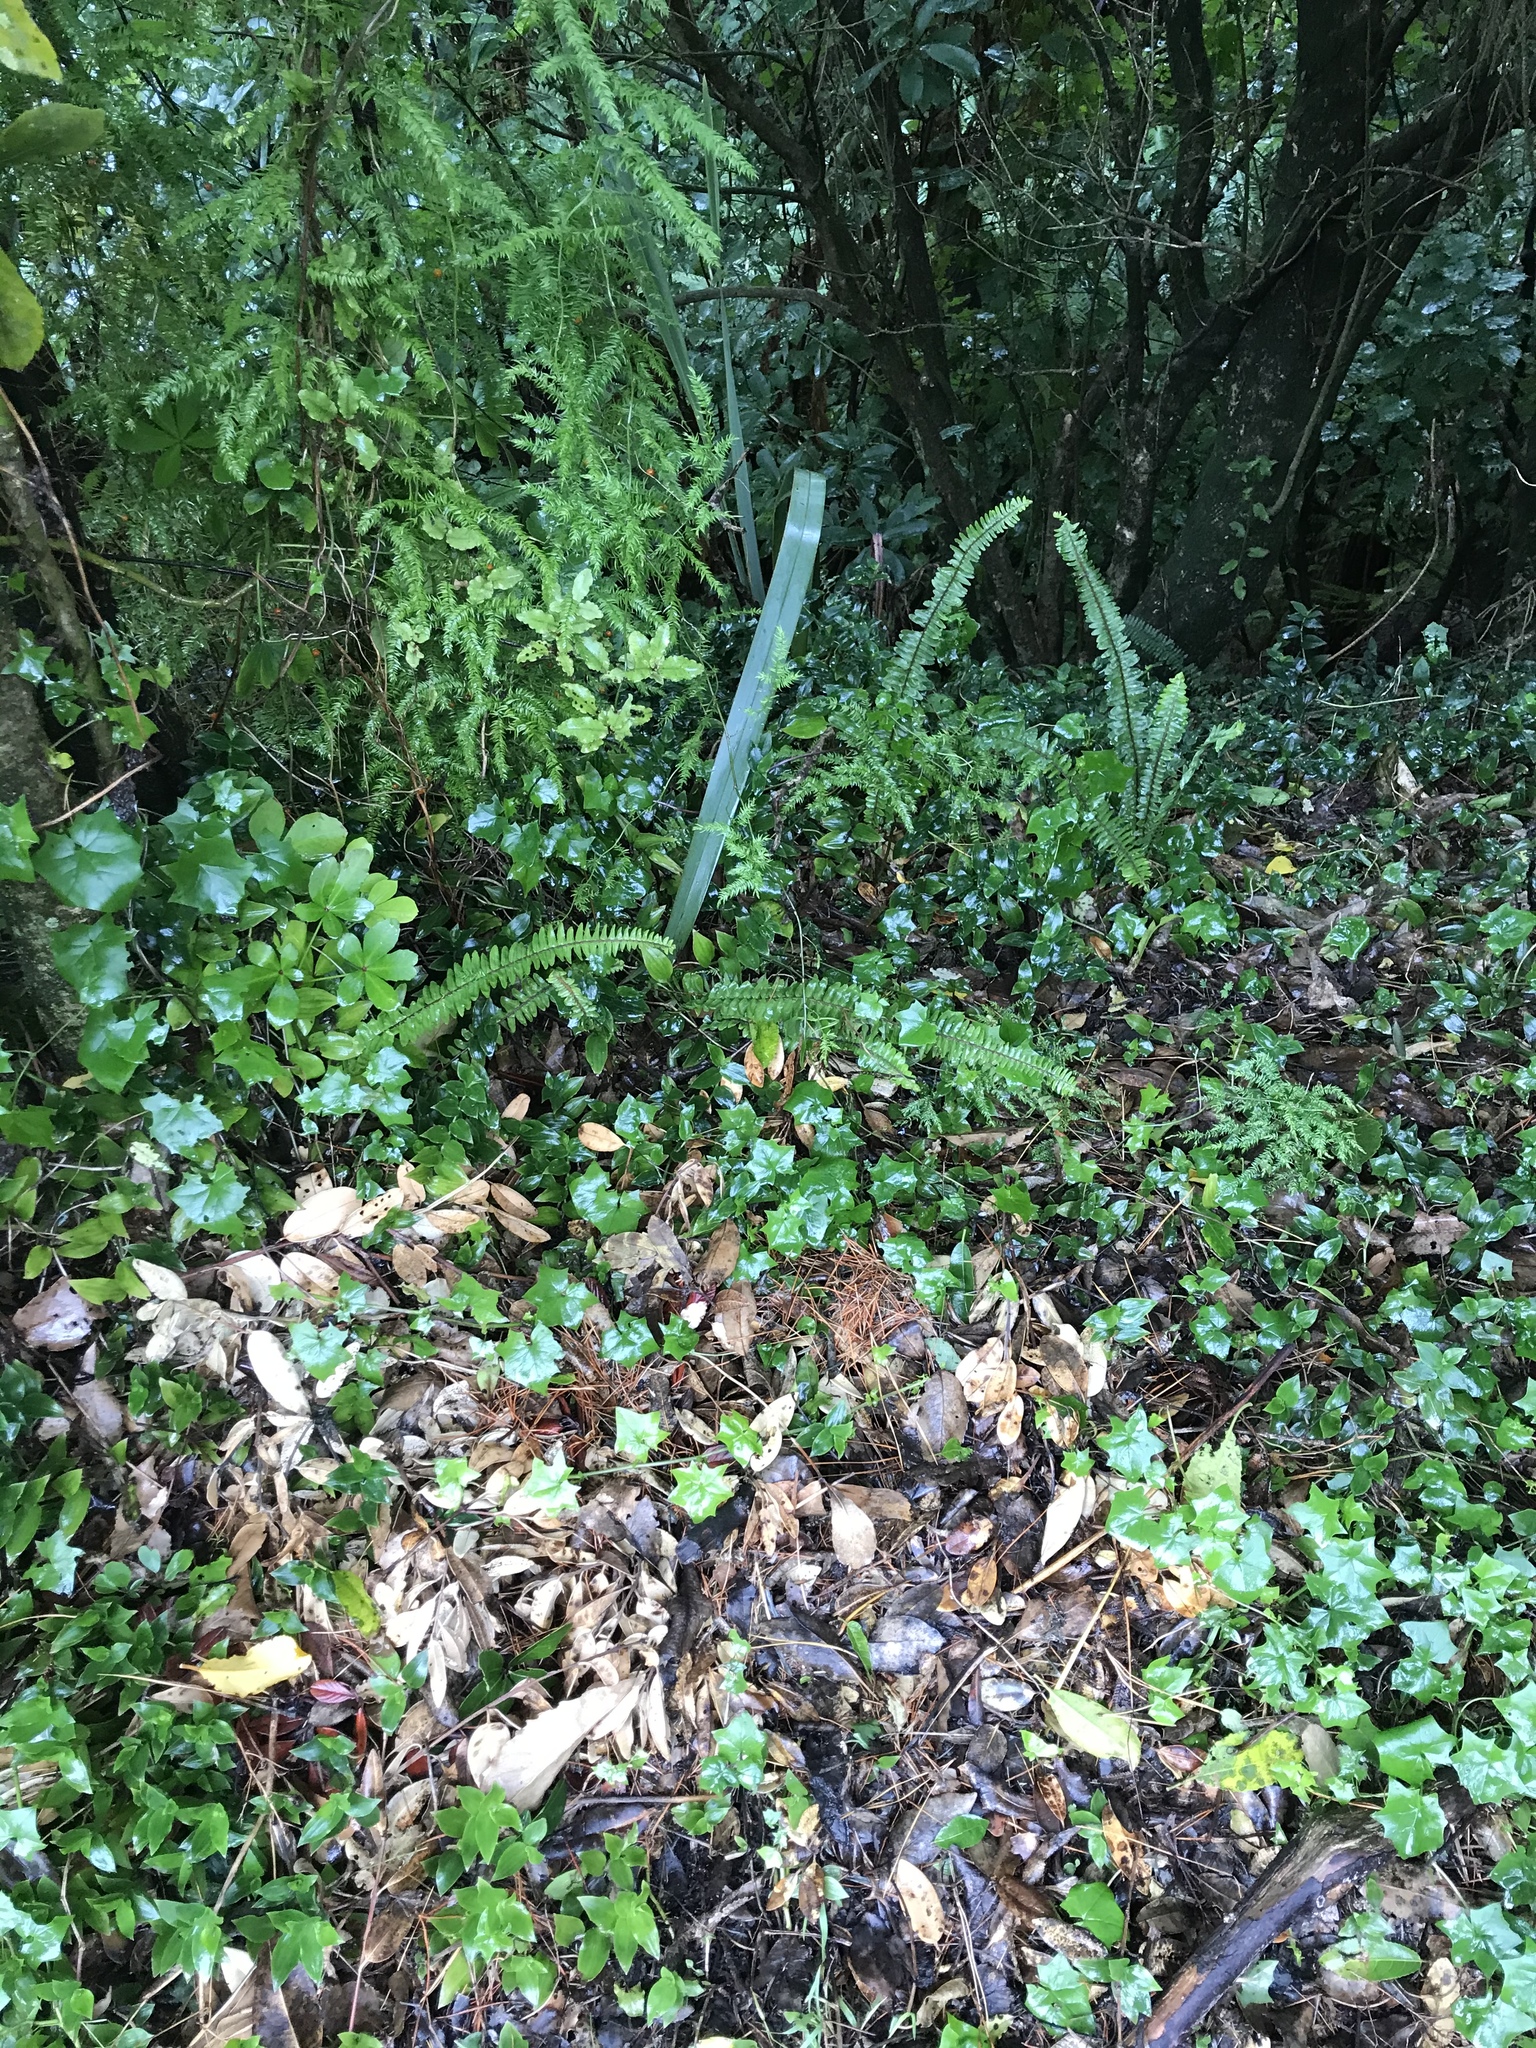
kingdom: Plantae
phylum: Tracheophyta
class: Polypodiopsida
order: Polypodiales
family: Nephrolepidaceae
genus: Nephrolepis
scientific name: Nephrolepis cordifolia
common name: Narrow swordfern
